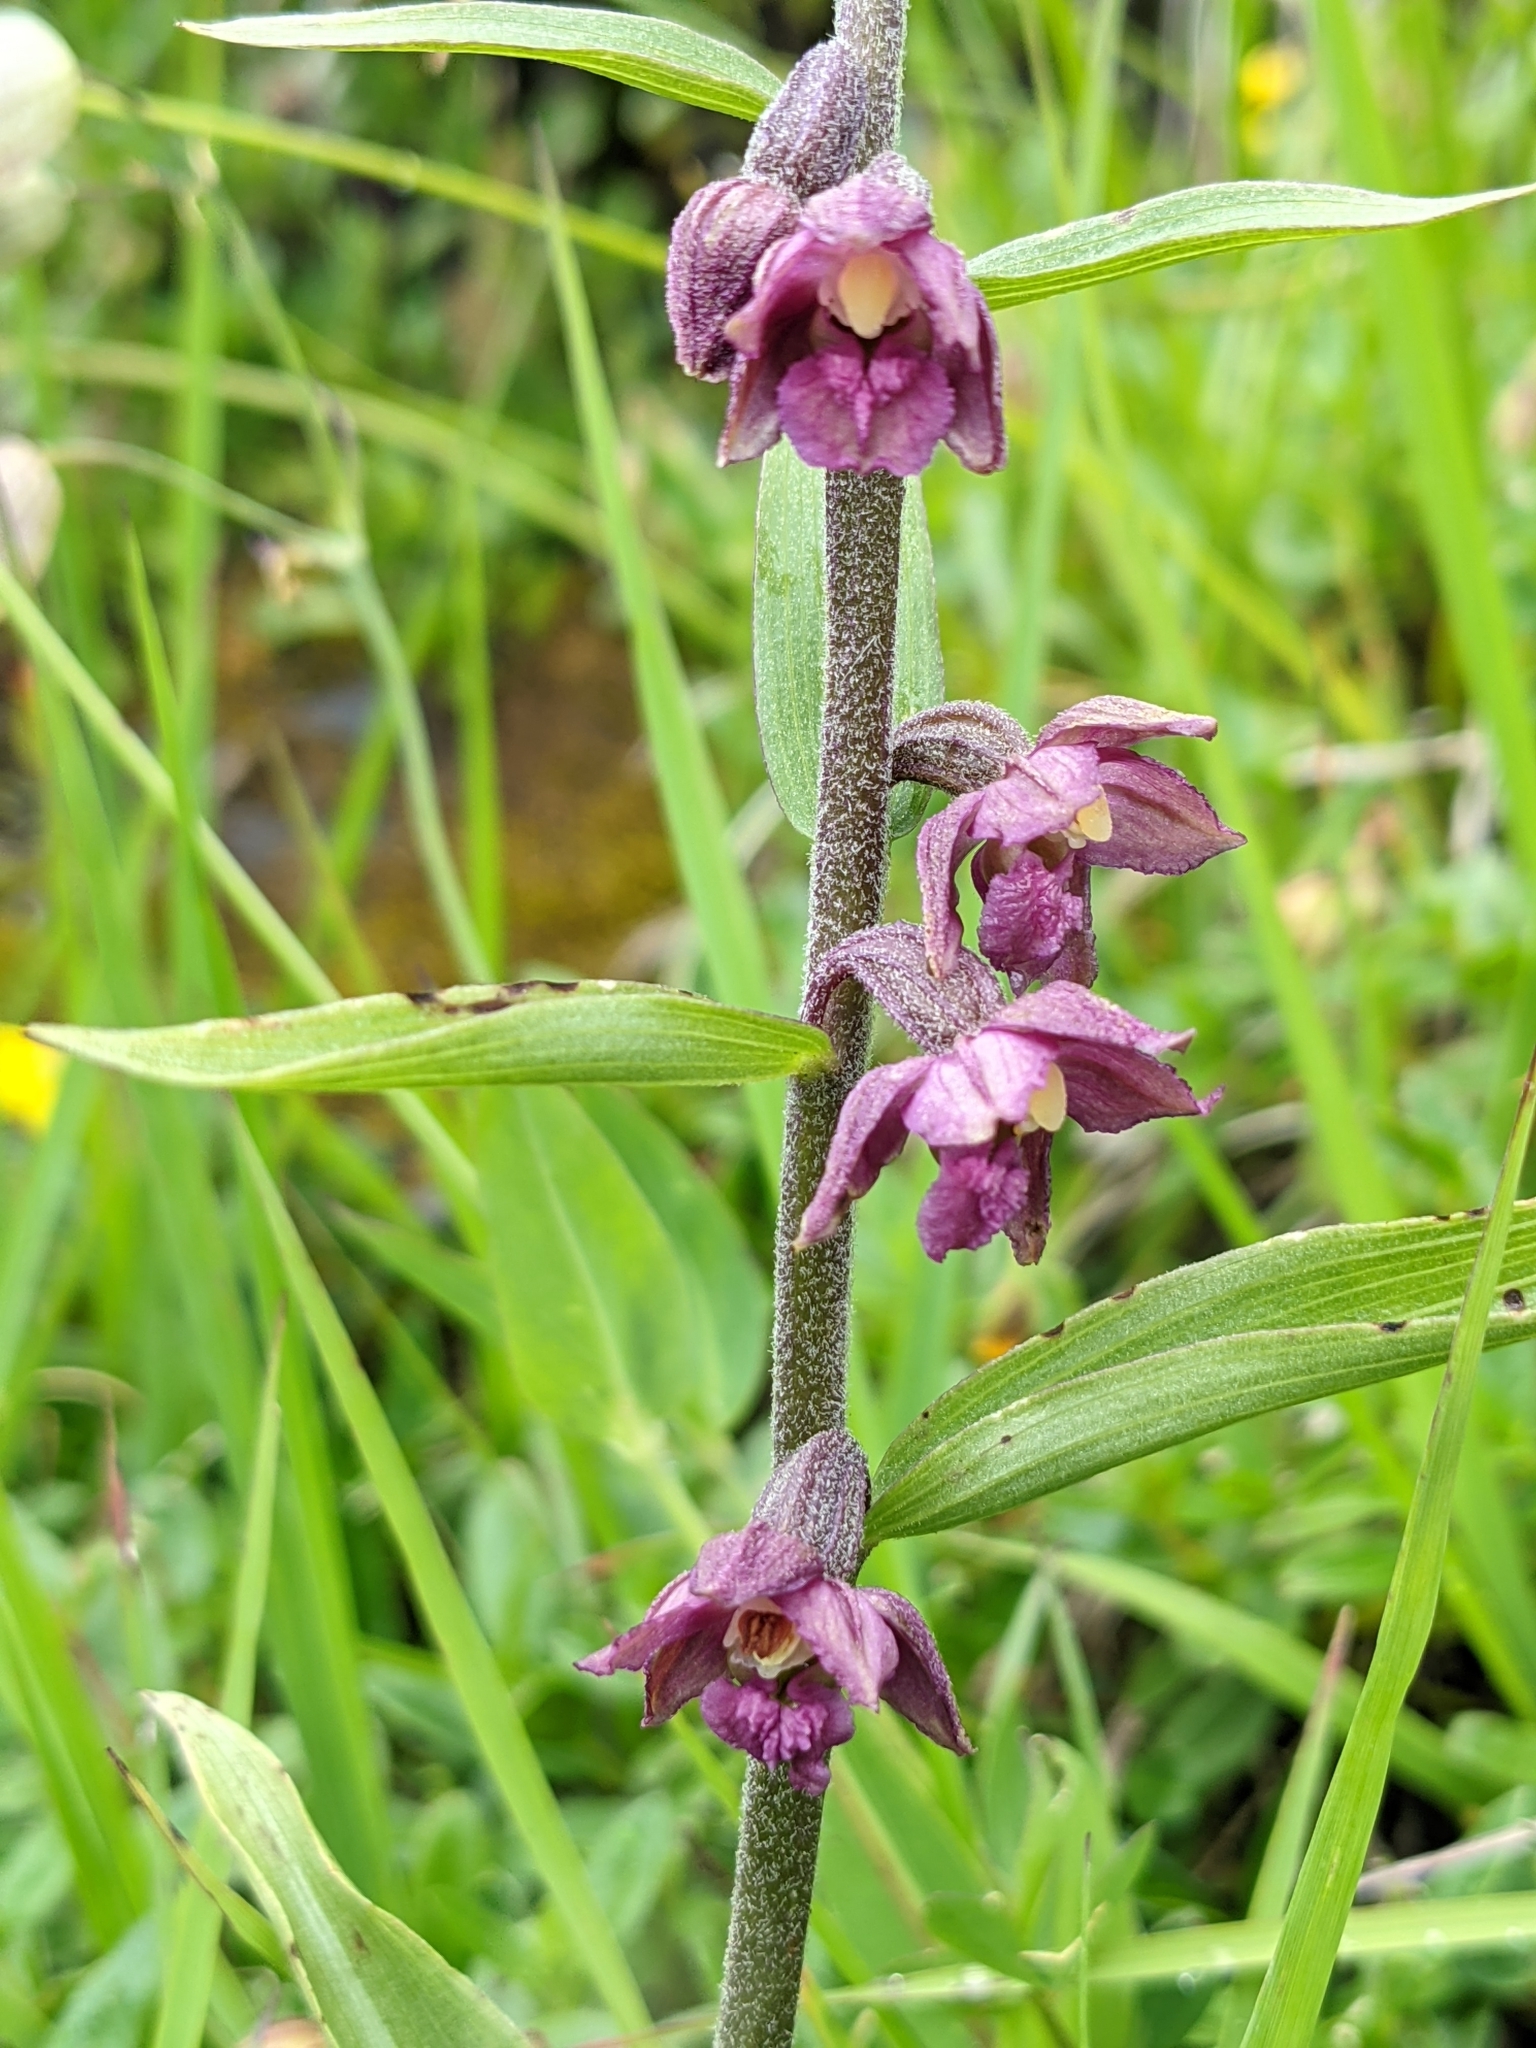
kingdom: Plantae
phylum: Tracheophyta
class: Liliopsida
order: Asparagales
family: Orchidaceae
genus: Epipactis
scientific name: Epipactis atrorubens
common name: Dark-red helleborine
